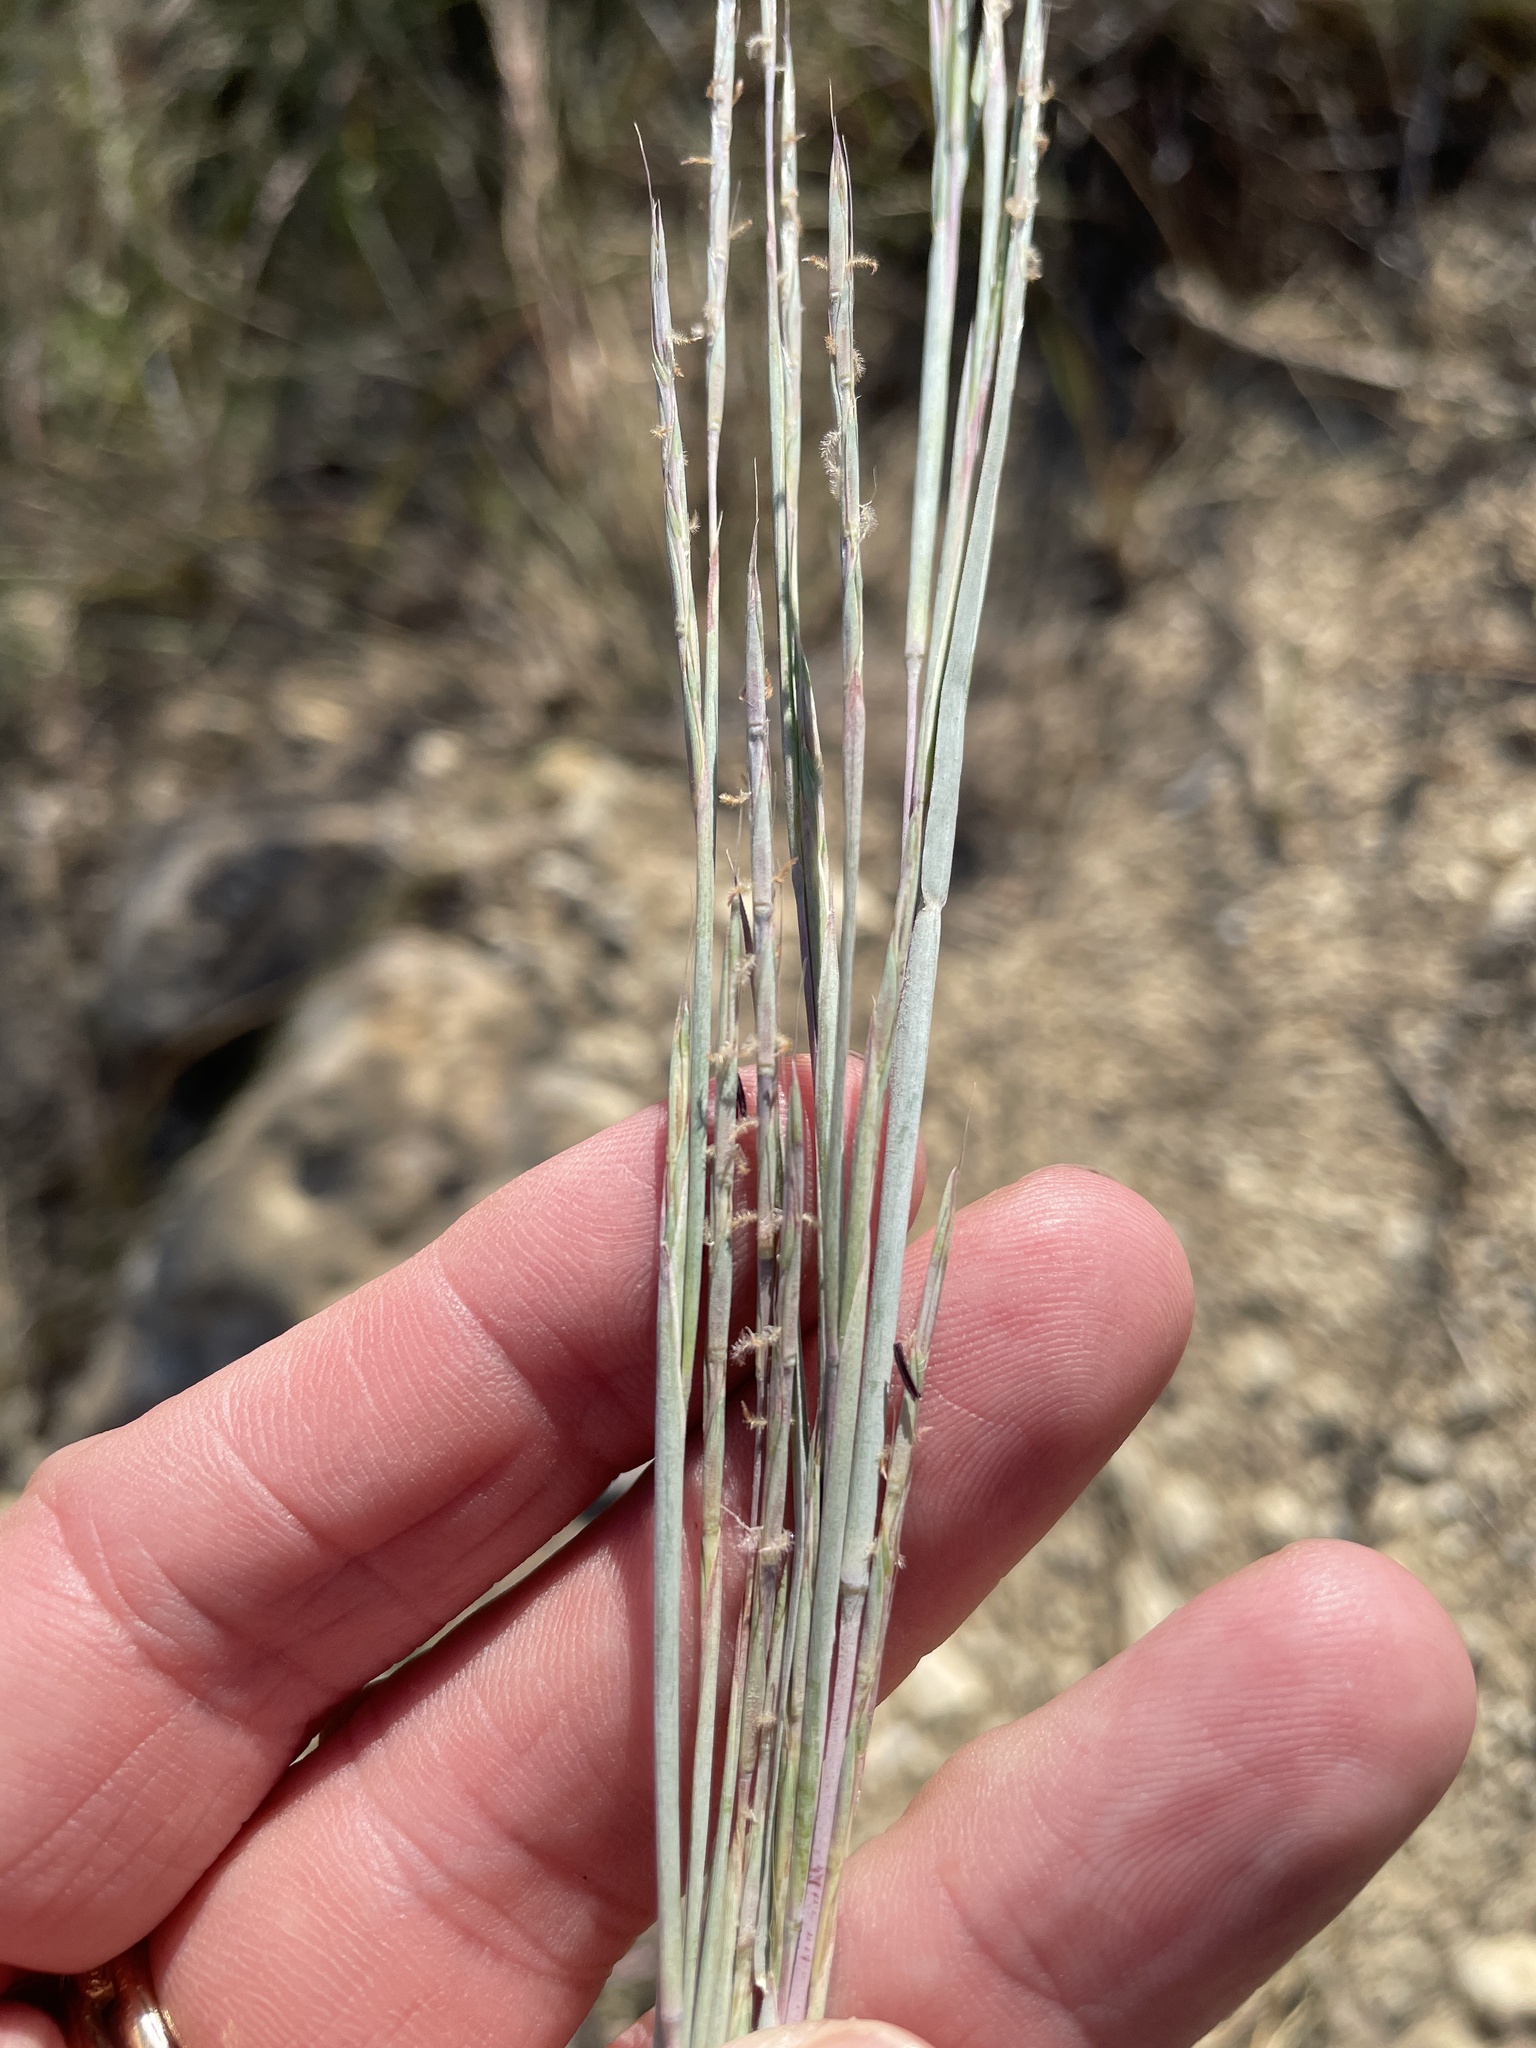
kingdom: Plantae
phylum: Tracheophyta
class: Liliopsida
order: Poales
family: Poaceae
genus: Schizachyrium
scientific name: Schizachyrium scoparium
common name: Little bluestem
